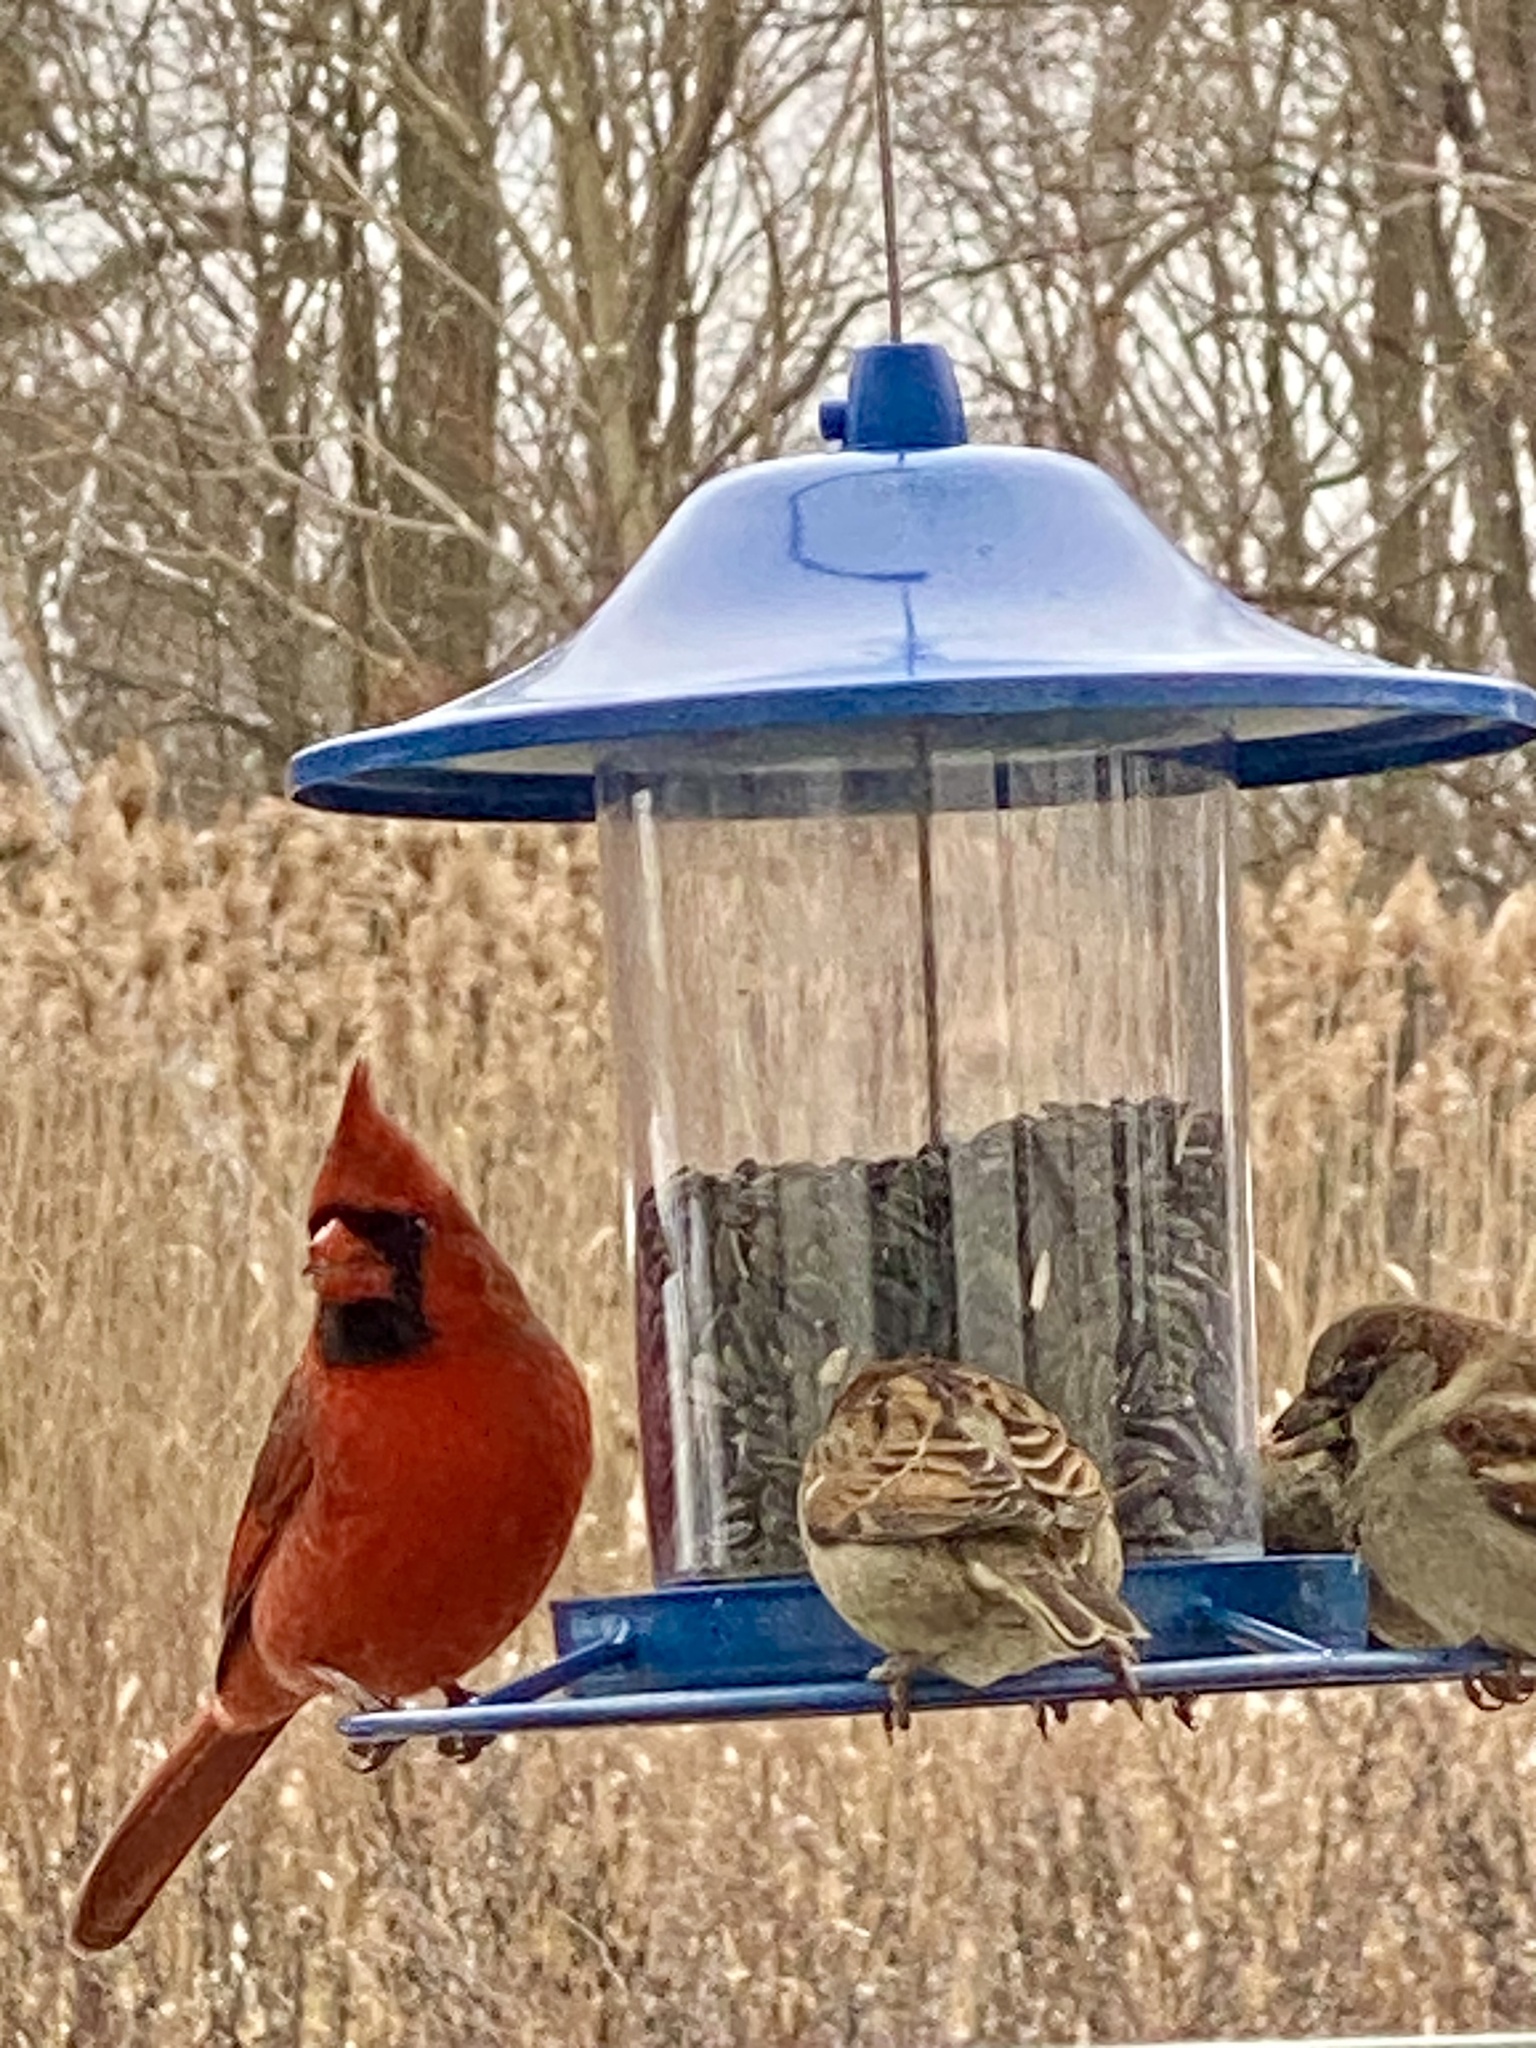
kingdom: Animalia
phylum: Chordata
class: Aves
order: Passeriformes
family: Cardinalidae
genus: Cardinalis
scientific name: Cardinalis cardinalis
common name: Northern cardinal
